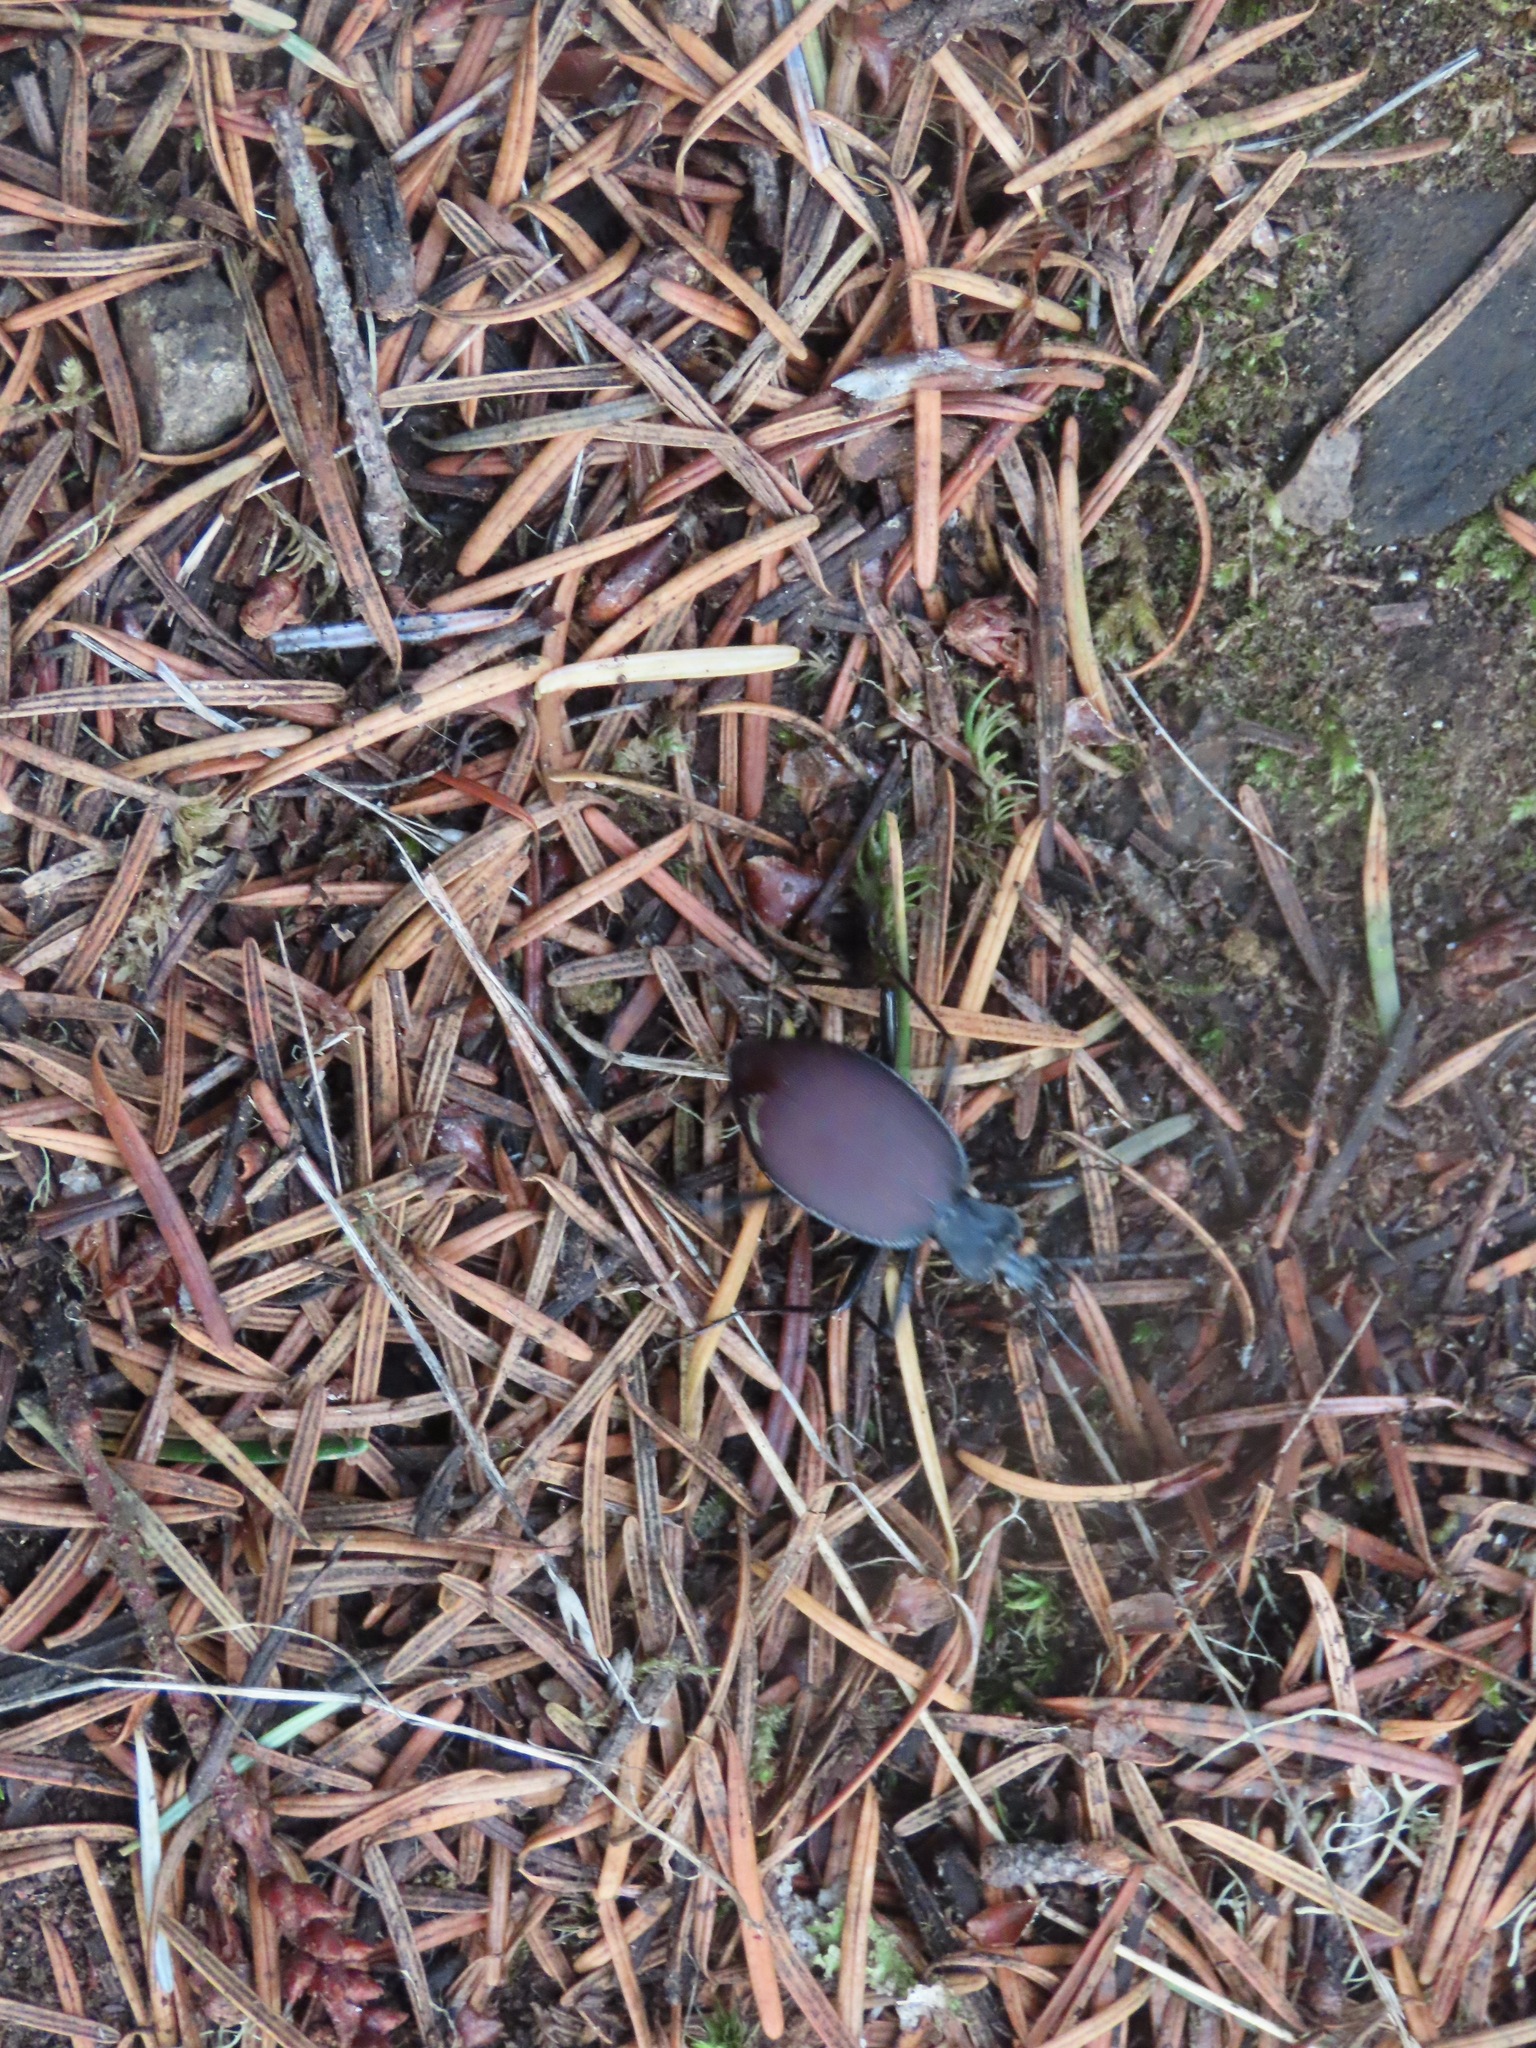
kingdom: Animalia
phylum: Arthropoda
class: Insecta
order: Coleoptera
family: Carabidae
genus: Scaphinotus
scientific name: Scaphinotus angusticollis
